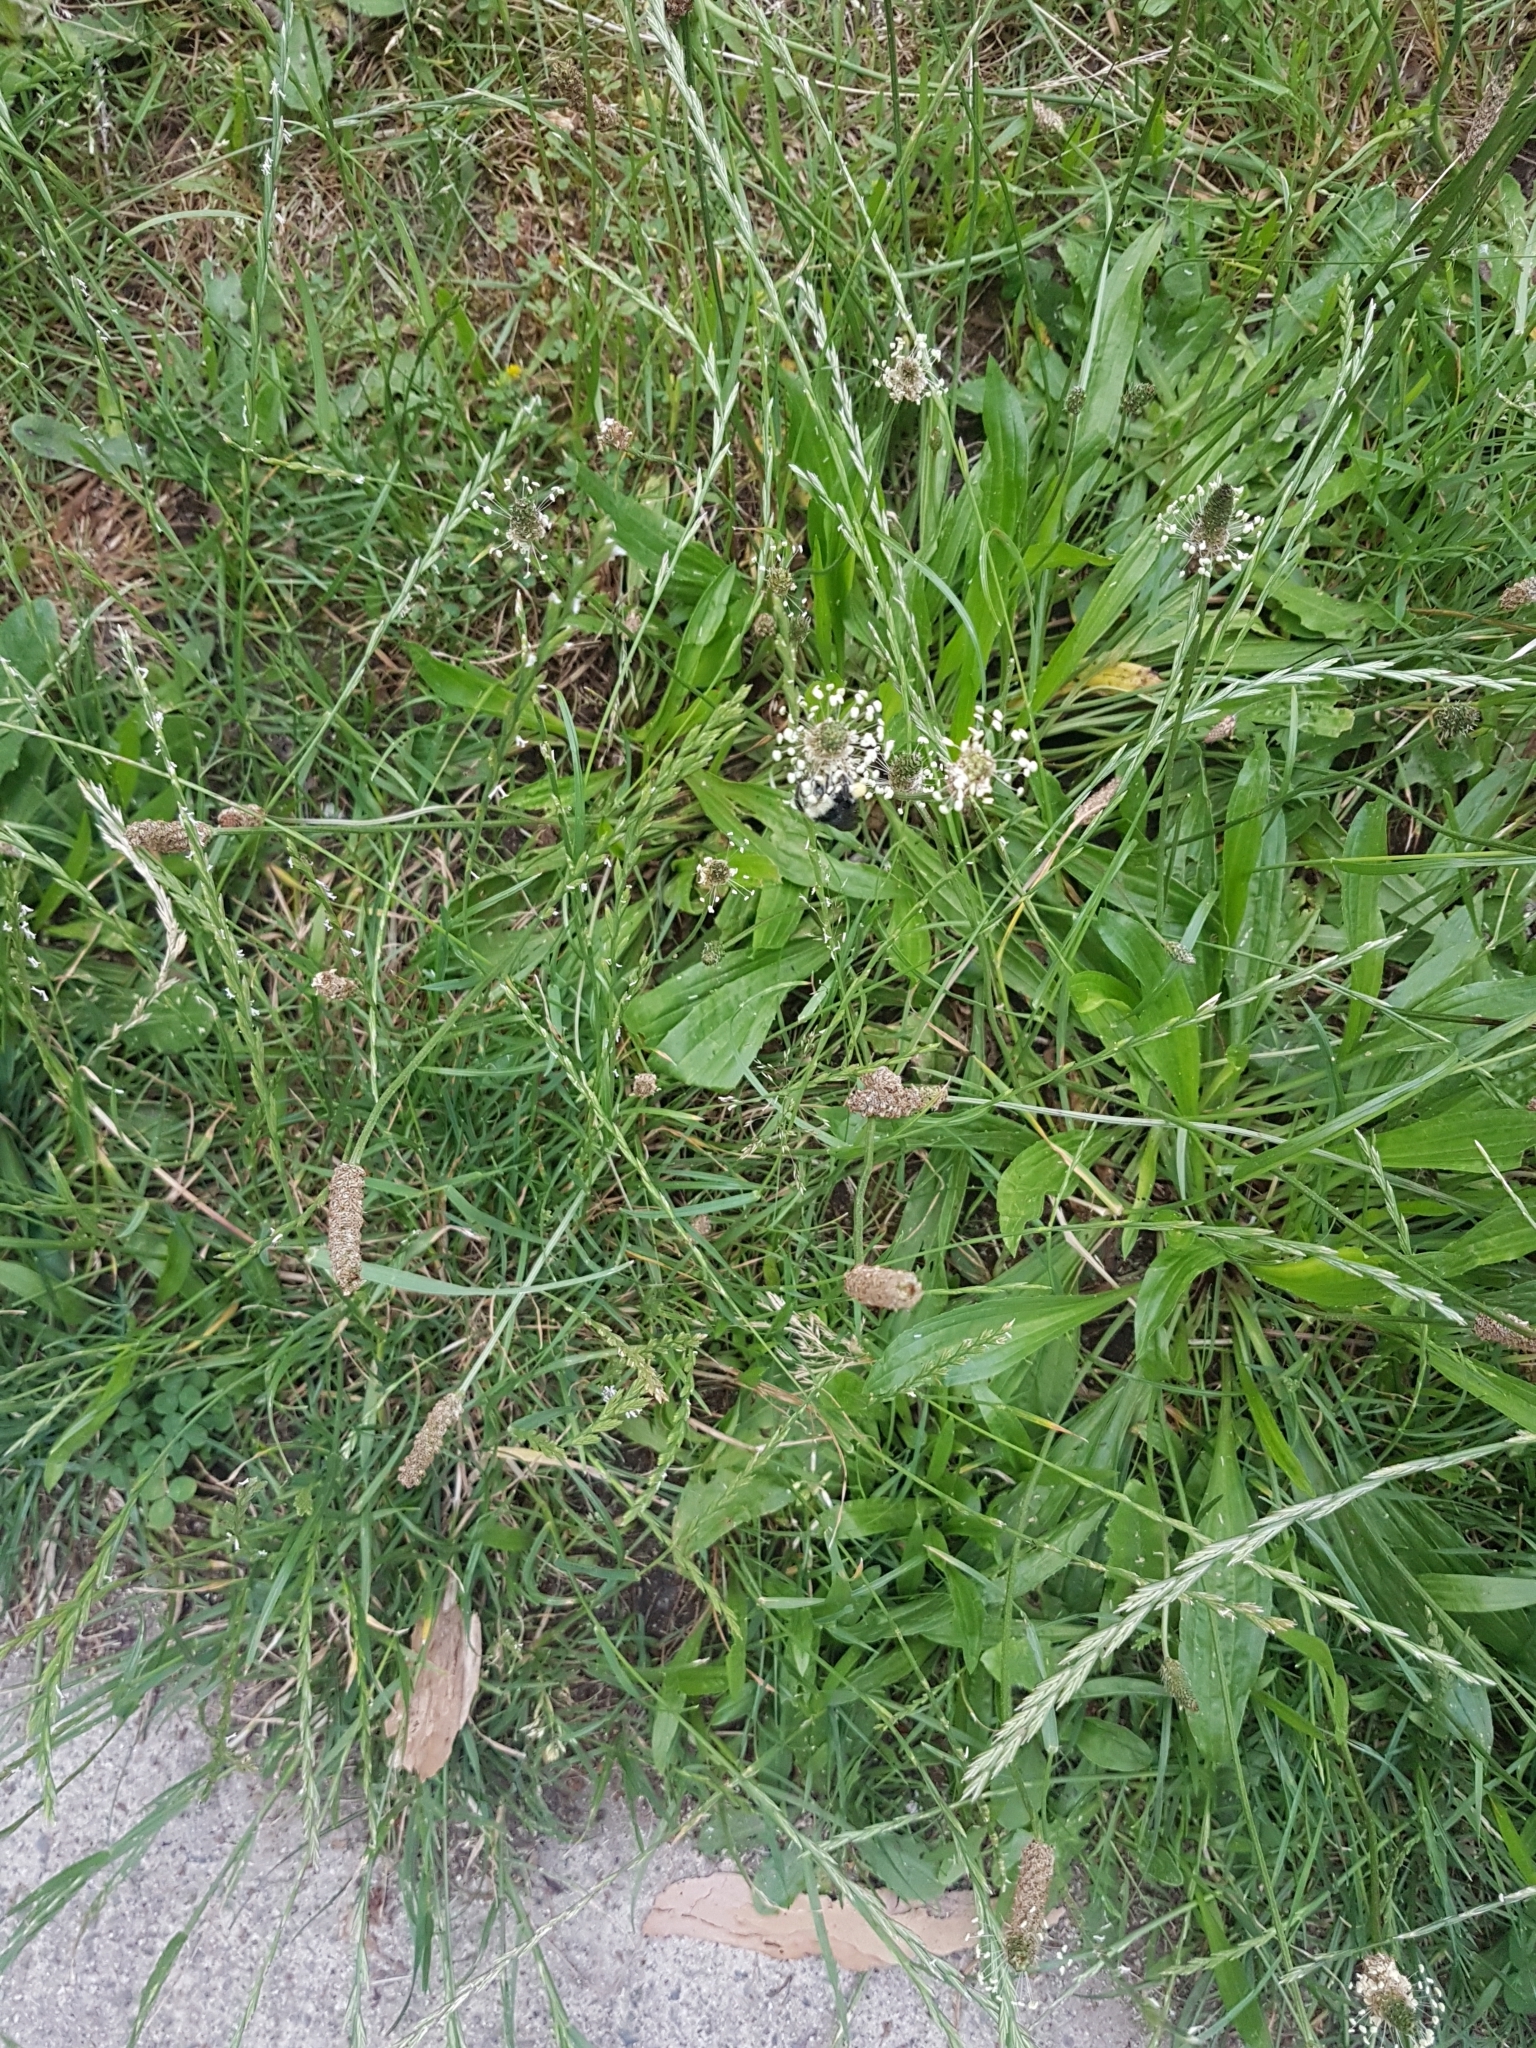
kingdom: Plantae
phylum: Tracheophyta
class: Magnoliopsida
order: Lamiales
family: Plantaginaceae
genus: Plantago
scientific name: Plantago lanceolata
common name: Ribwort plantain
